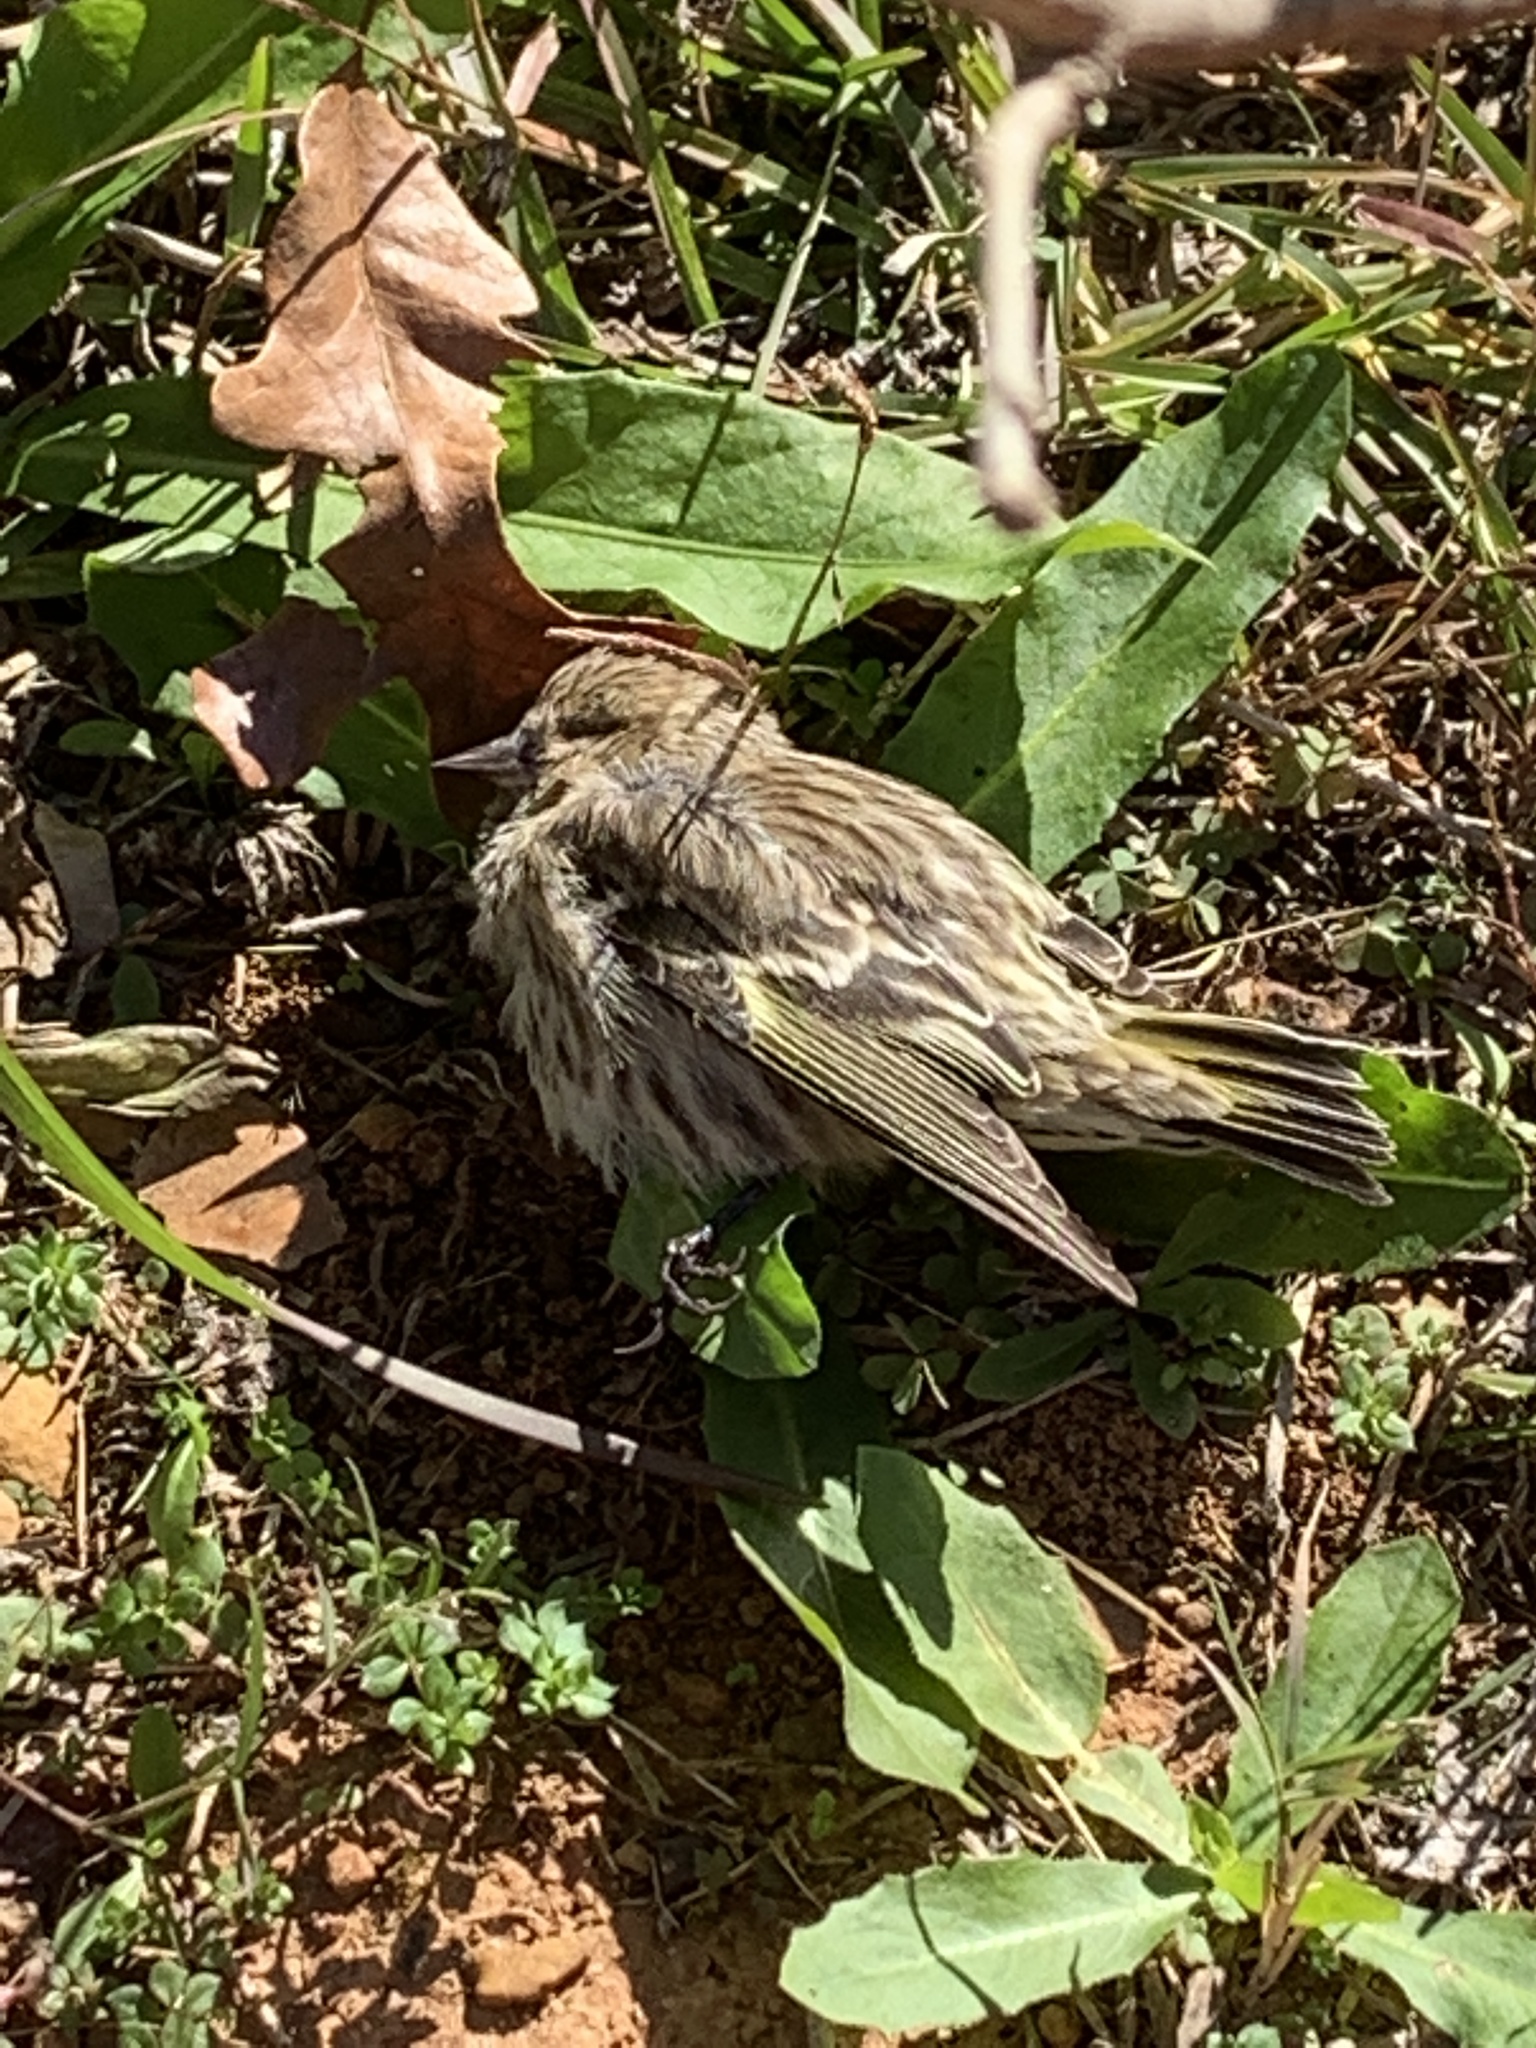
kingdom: Animalia
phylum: Chordata
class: Aves
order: Passeriformes
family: Fringillidae
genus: Spinus
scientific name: Spinus pinus
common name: Pine siskin
